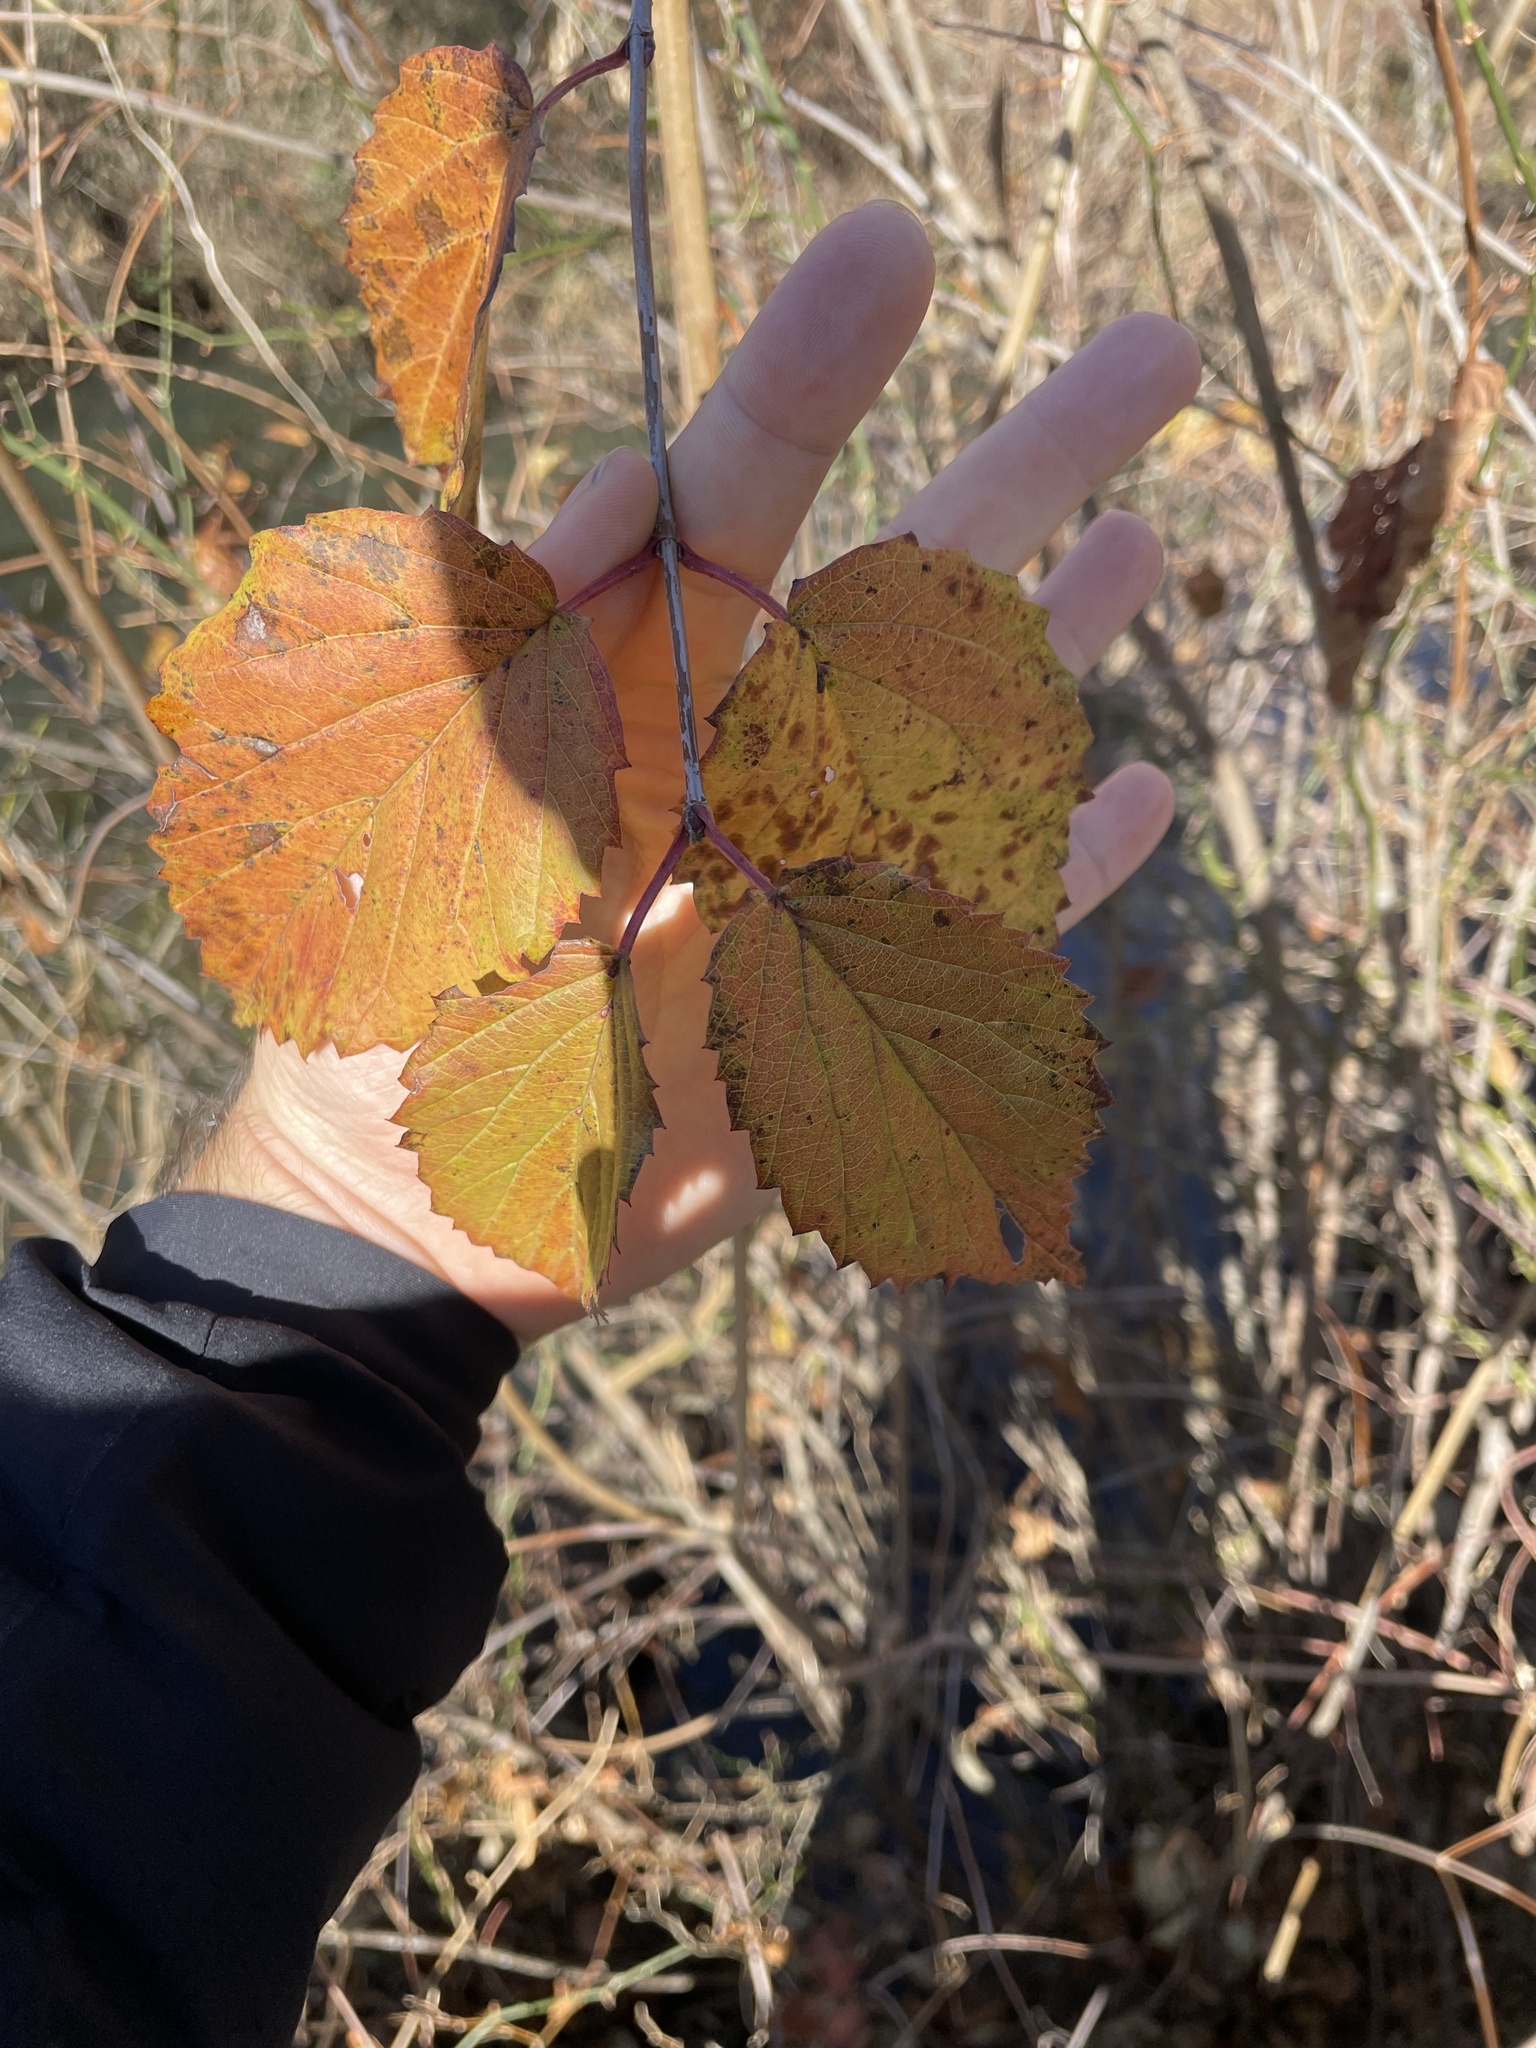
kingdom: Plantae
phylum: Tracheophyta
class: Magnoliopsida
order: Dipsacales
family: Viburnaceae
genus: Viburnum
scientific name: Viburnum recognitum
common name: Northern arrow-wood
